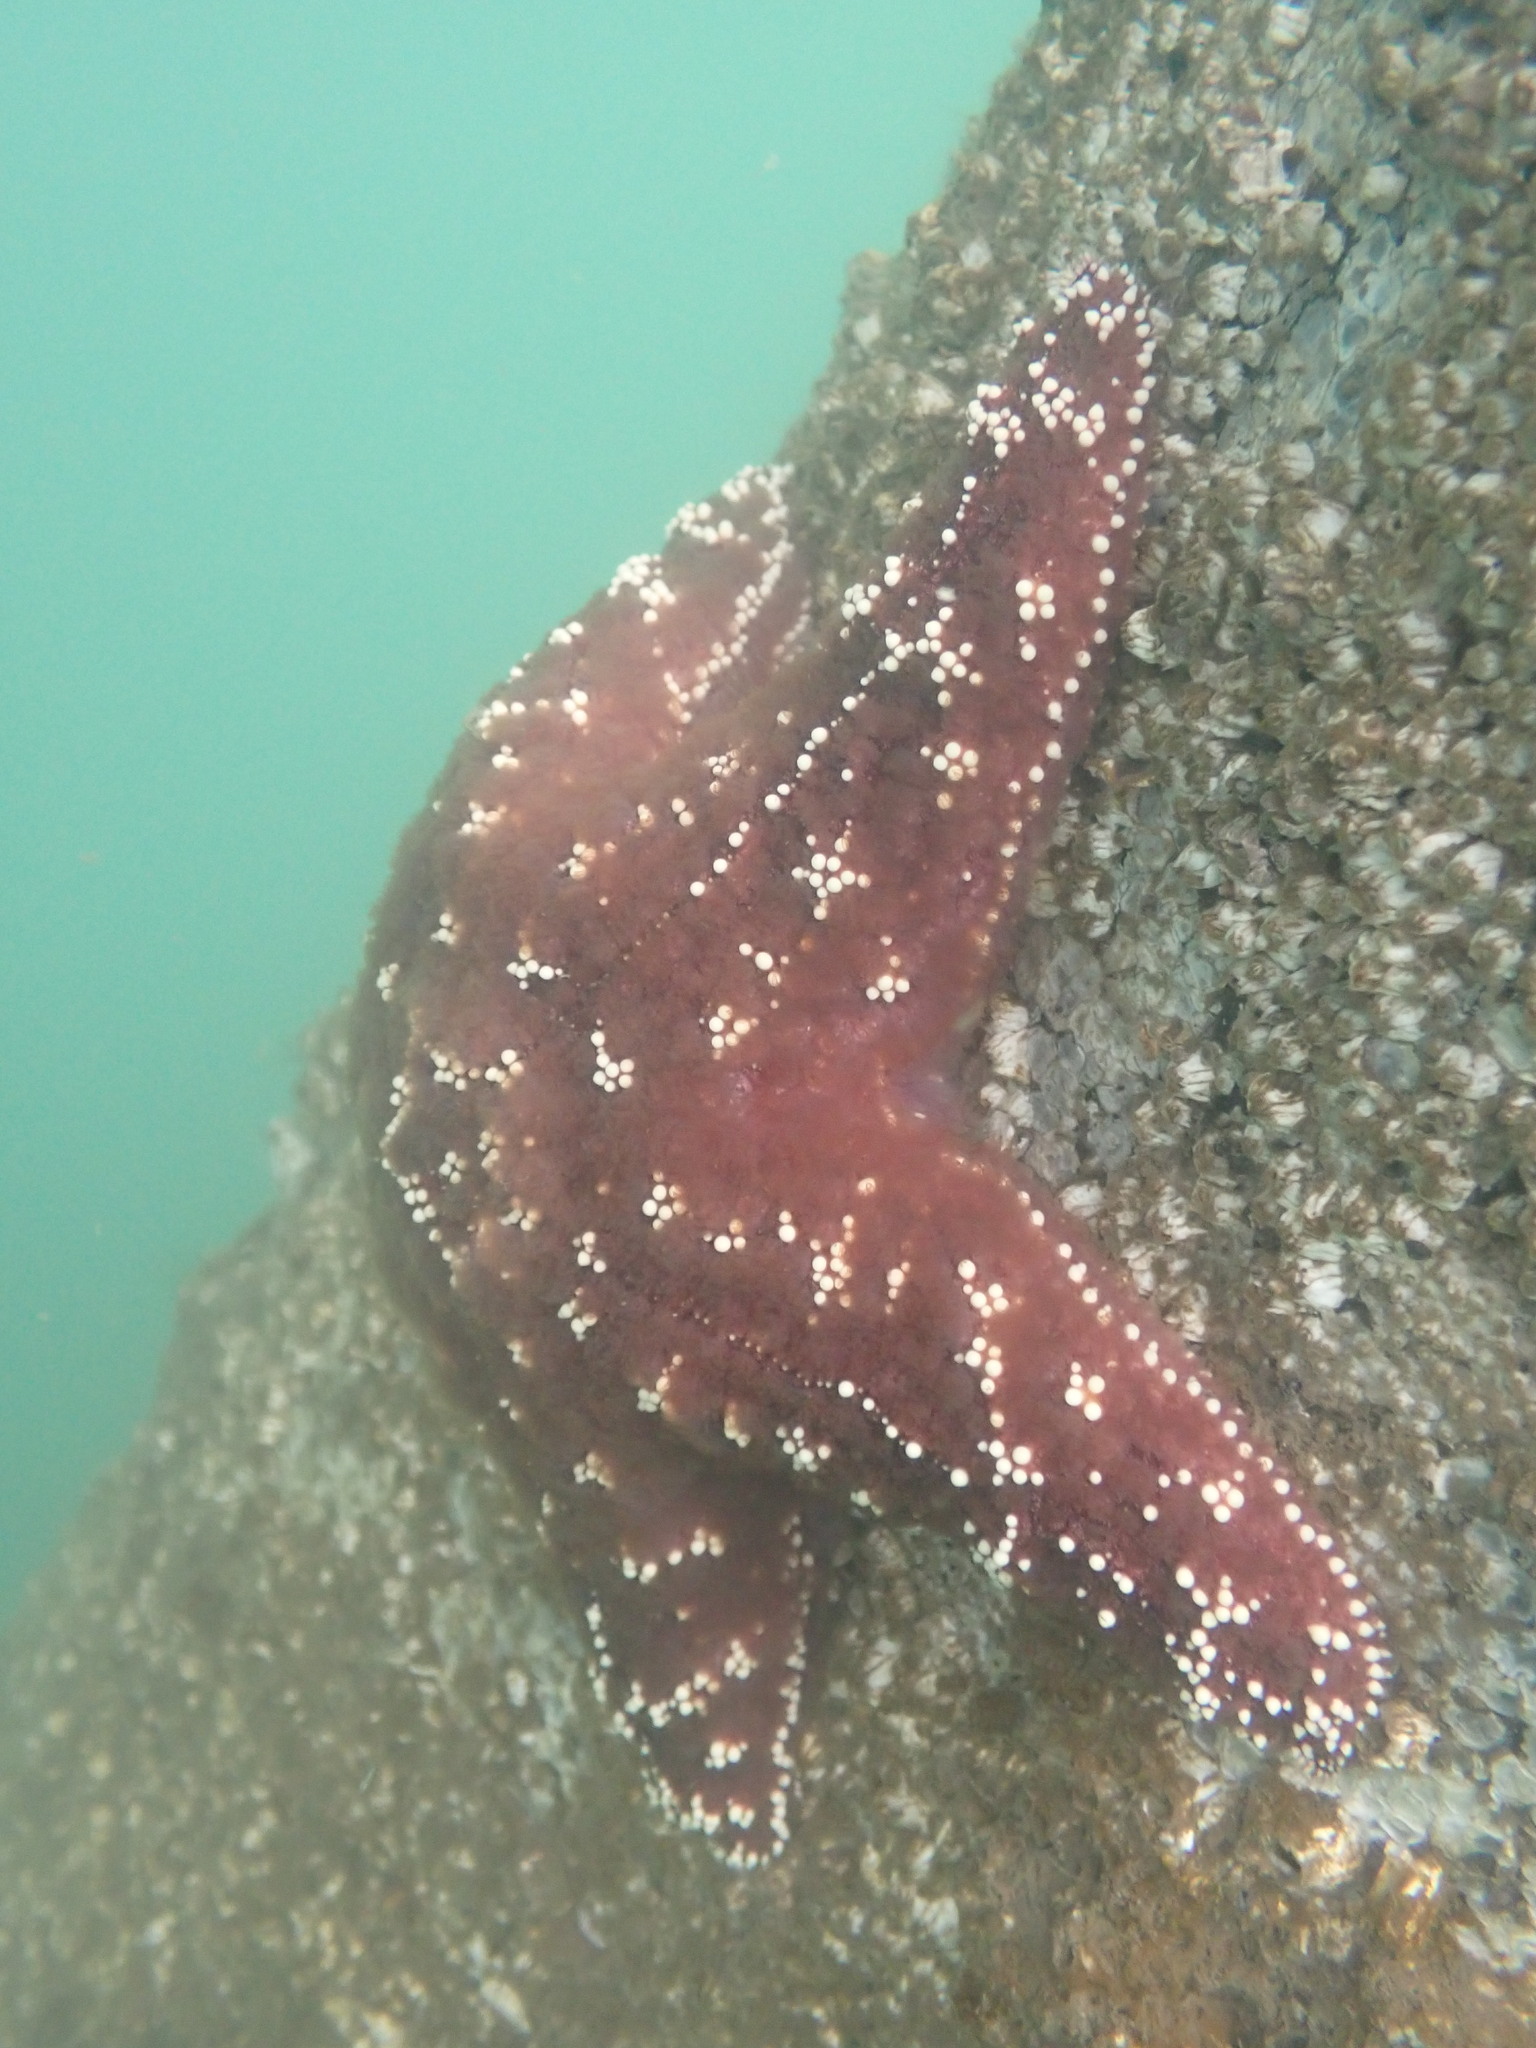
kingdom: Animalia
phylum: Echinodermata
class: Asteroidea
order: Forcipulatida
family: Asteriidae
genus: Pisaster
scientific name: Pisaster ochraceus
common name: Ochre stars
